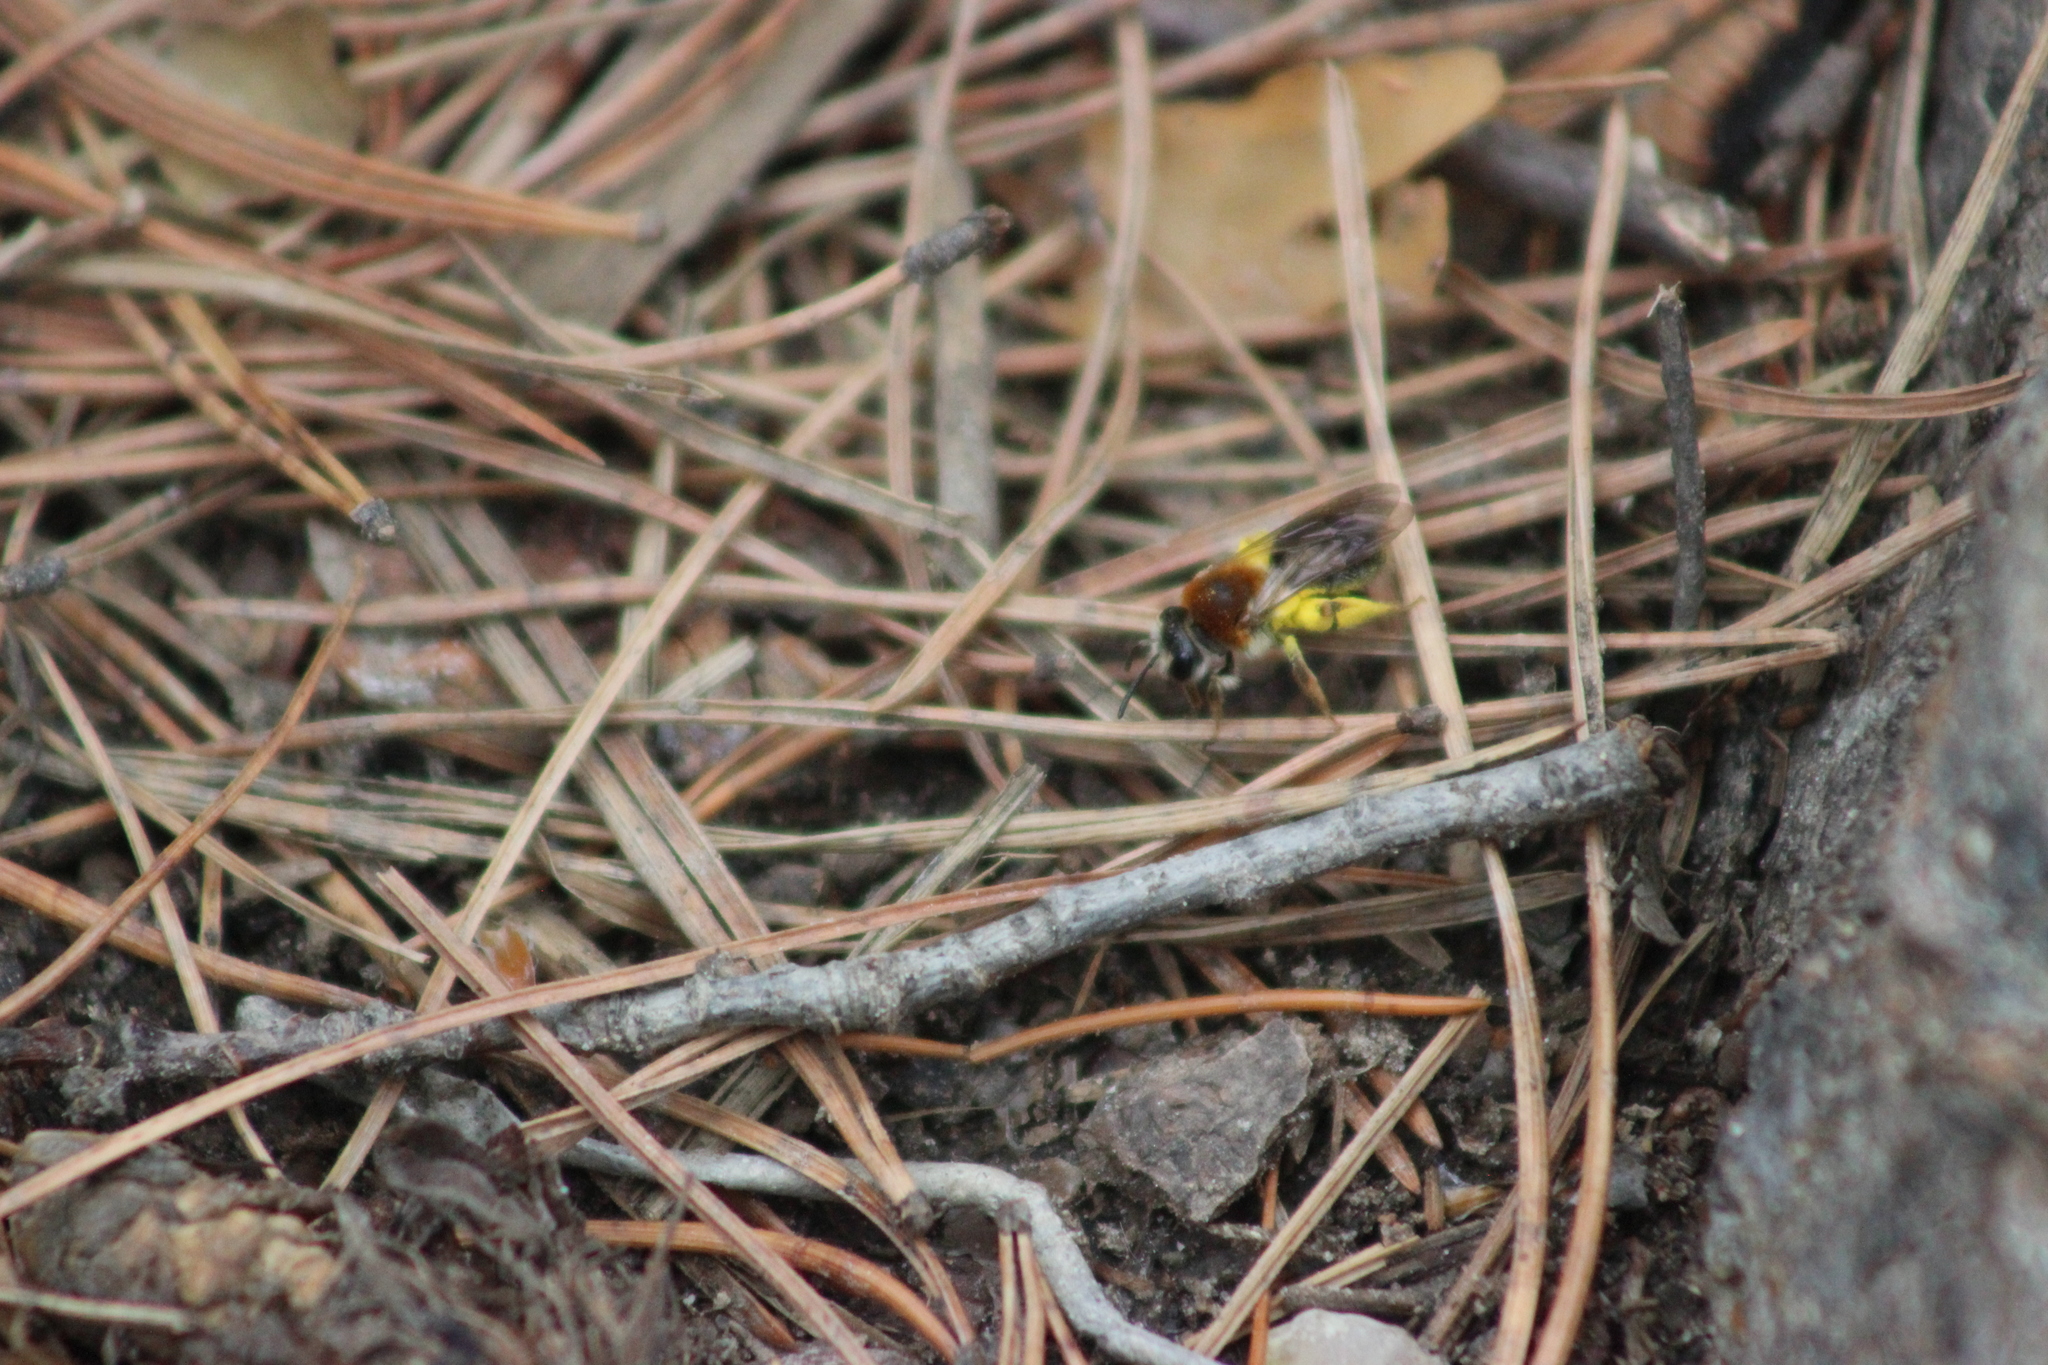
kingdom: Animalia
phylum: Arthropoda
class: Insecta
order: Hymenoptera
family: Andrenidae
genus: Andrena
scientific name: Andrena haemorrhoa
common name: Early mining bee
